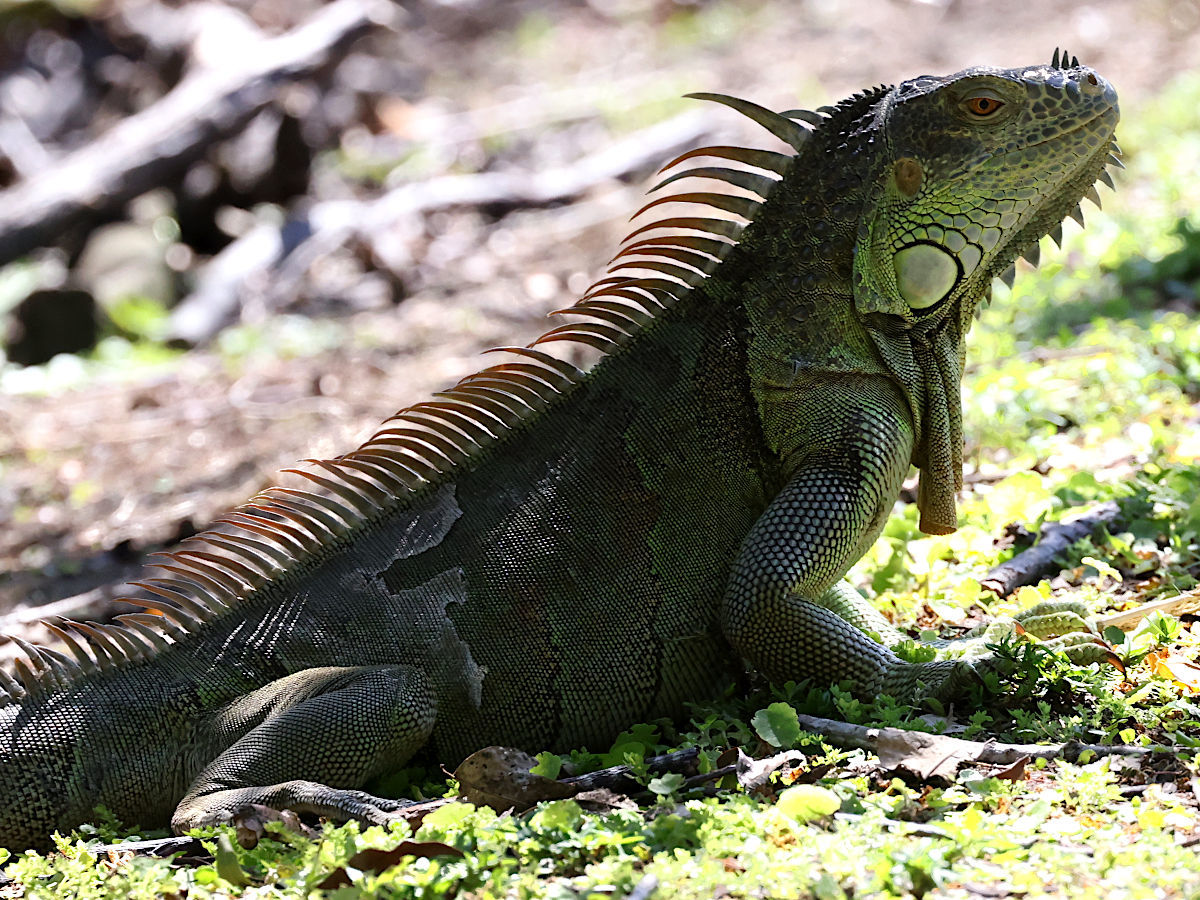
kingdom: Animalia
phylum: Chordata
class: Squamata
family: Iguanidae
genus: Iguana
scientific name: Iguana iguana
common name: Green iguana
